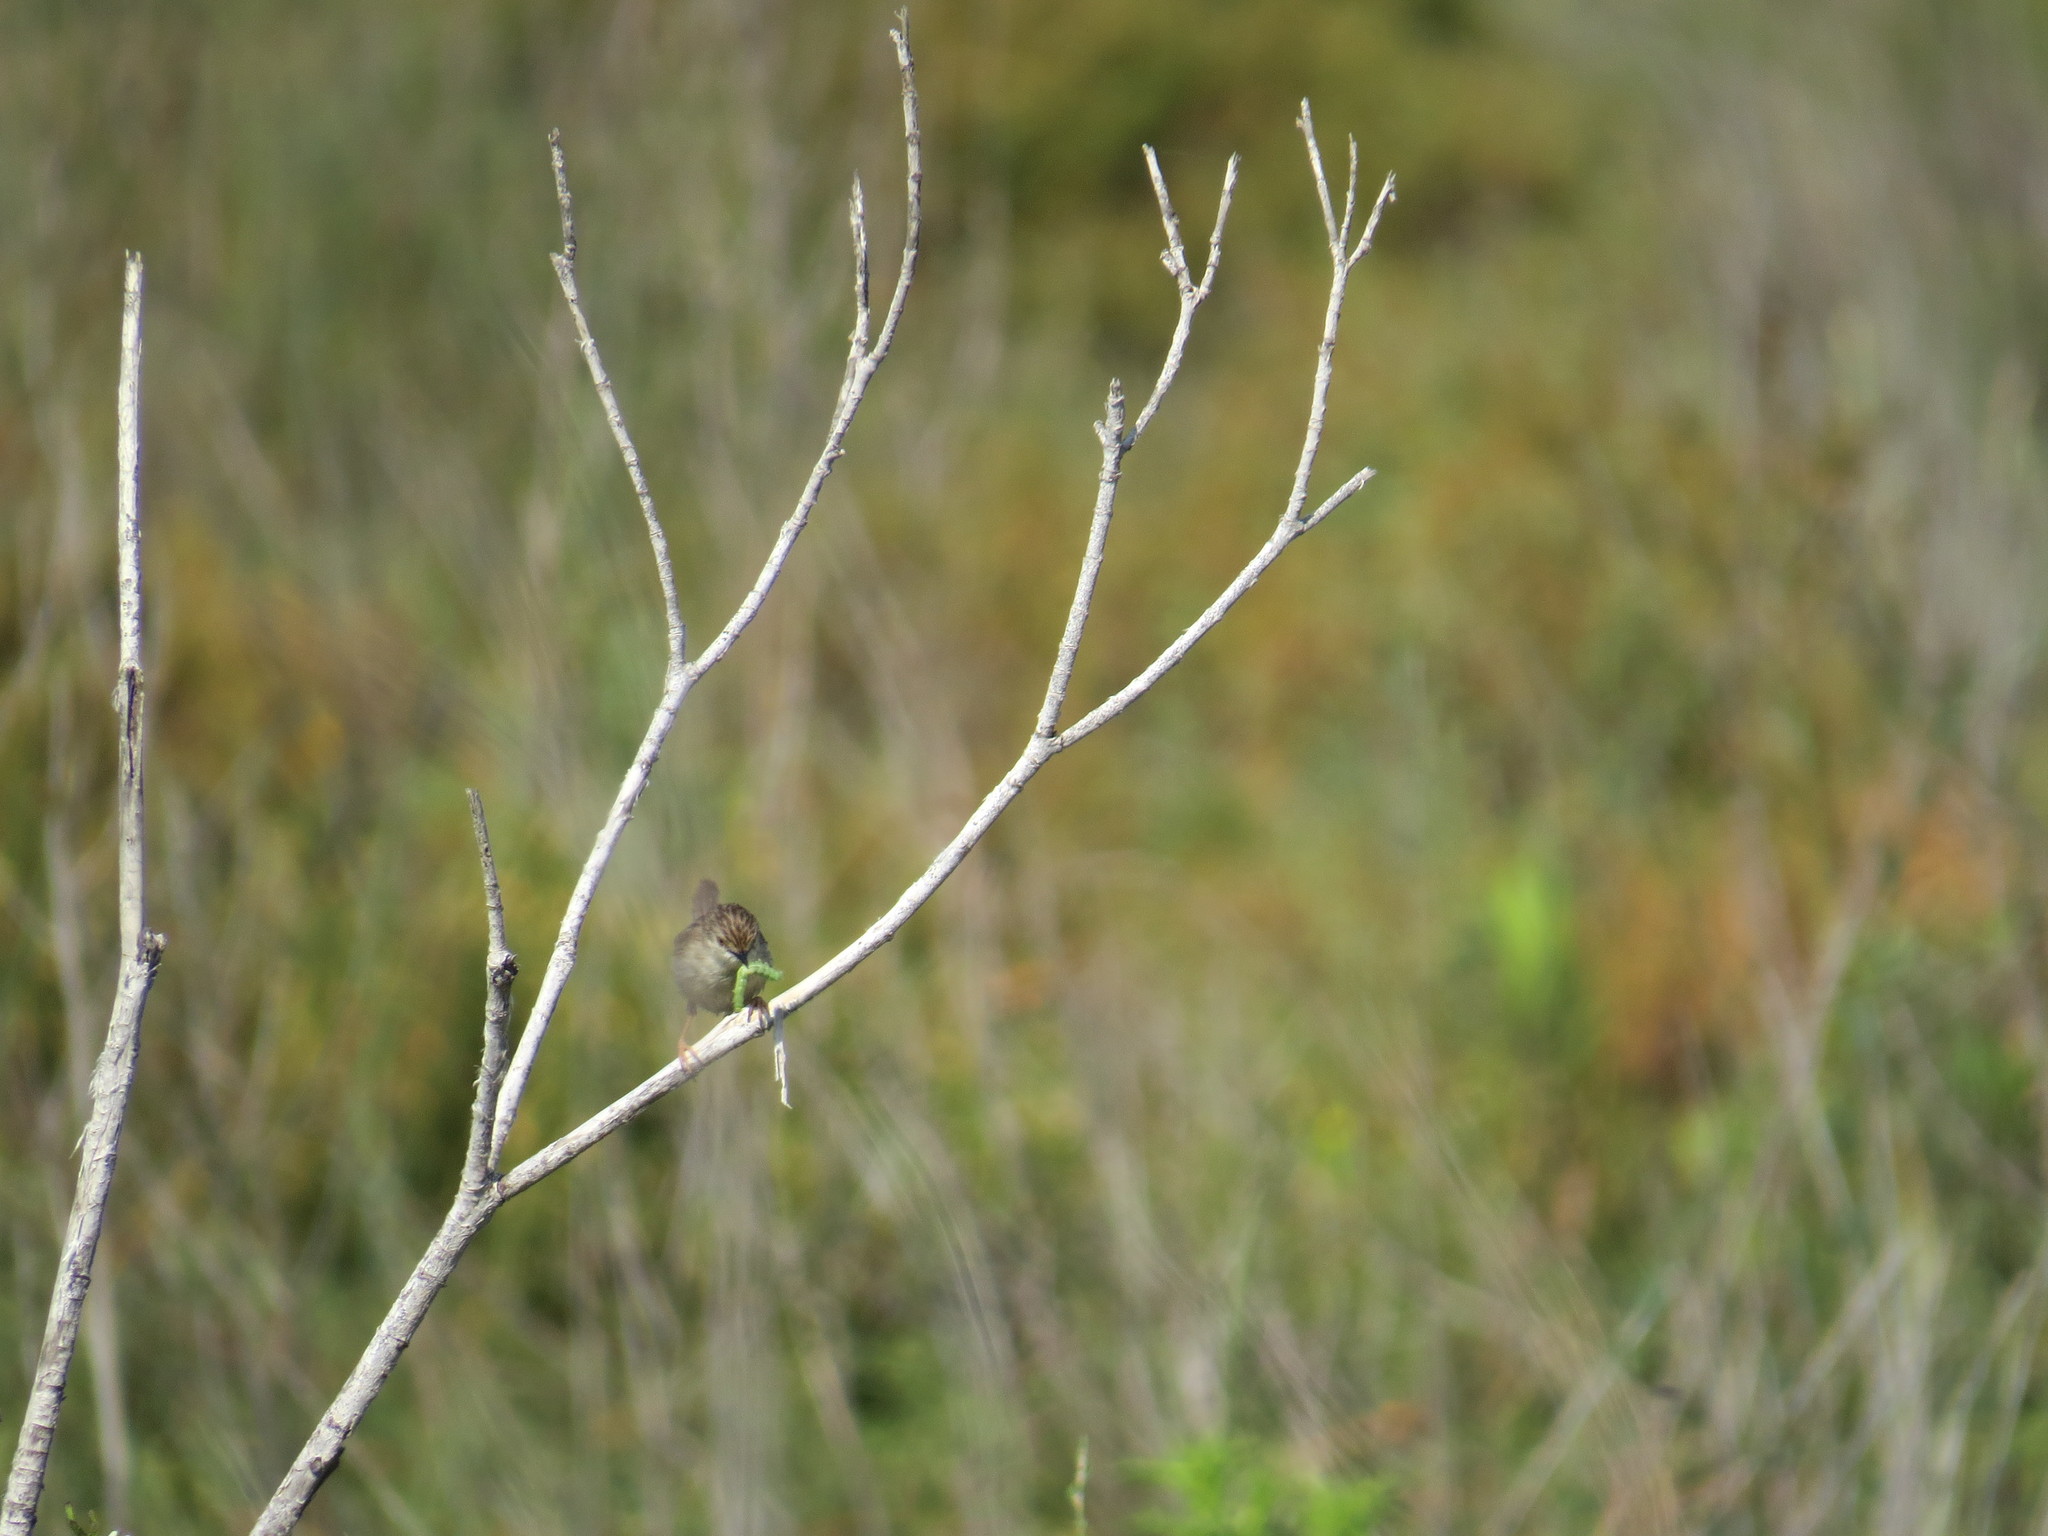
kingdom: Animalia
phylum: Chordata
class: Aves
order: Passeriformes
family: Cisticolidae
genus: Prinia
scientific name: Prinia lepida
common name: Delicate prinia
